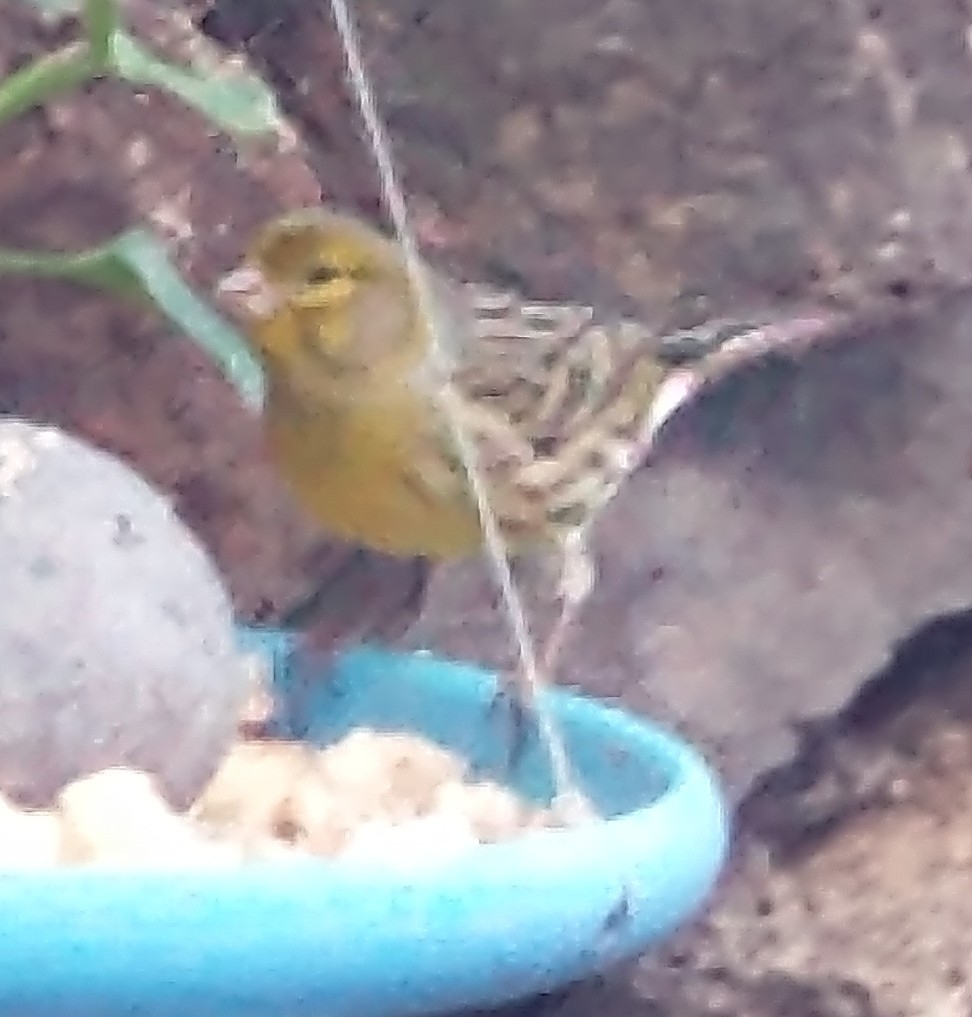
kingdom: Animalia
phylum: Chordata
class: Aves
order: Passeriformes
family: Fringillidae
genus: Serinus
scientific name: Serinus canaria
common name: Atlantic canary
